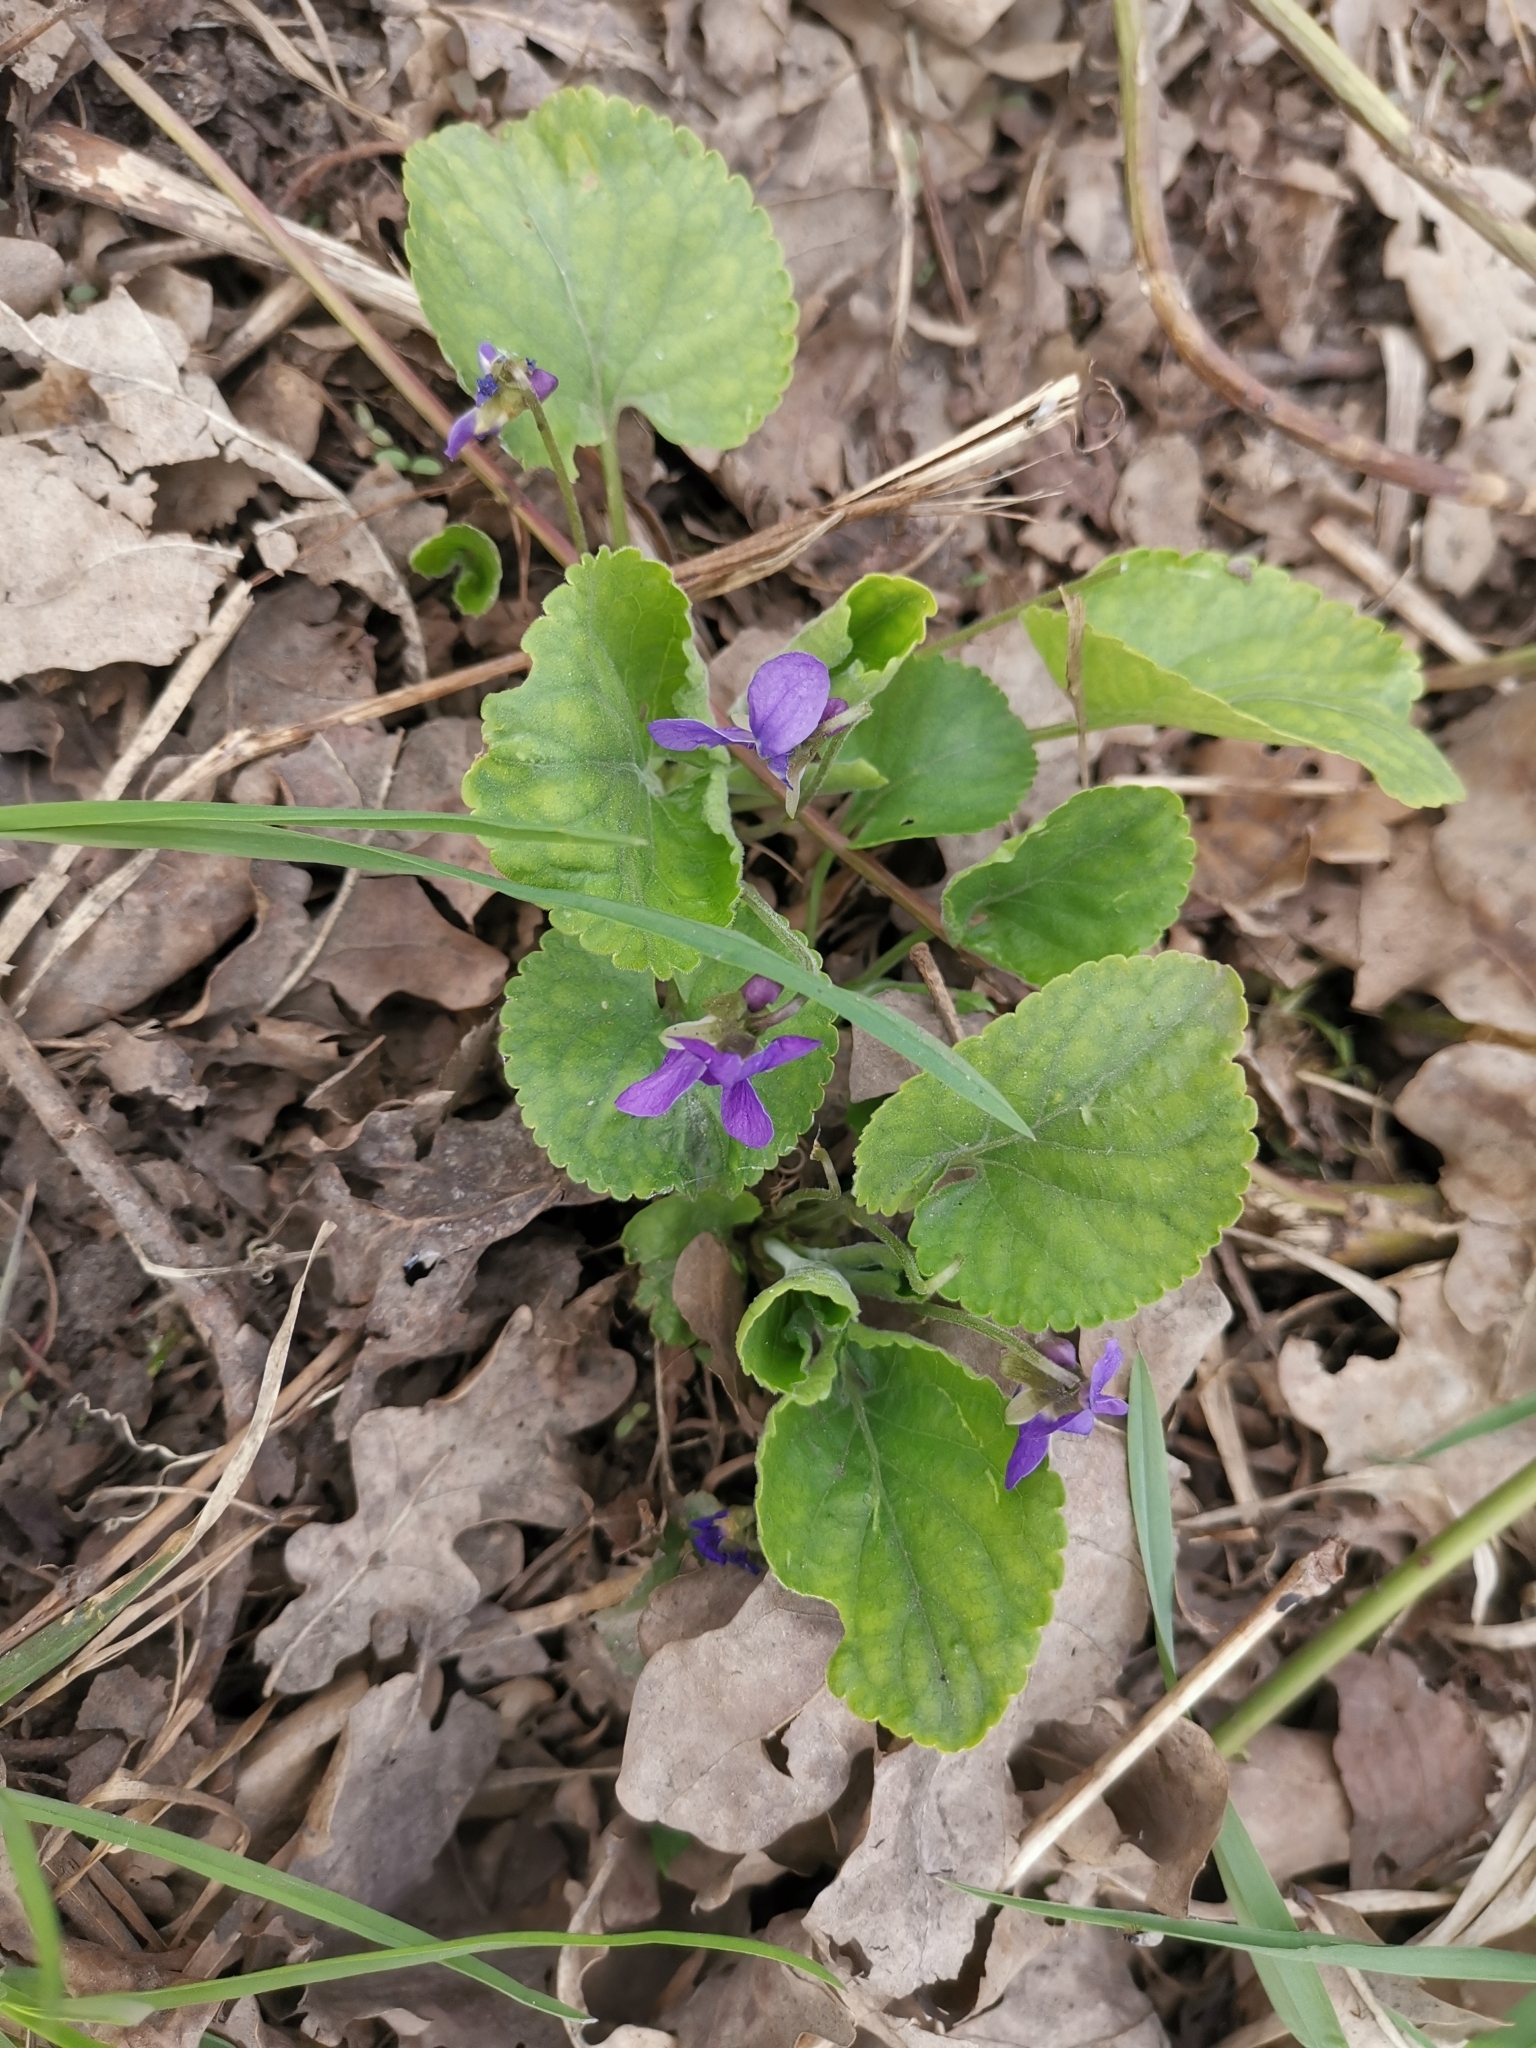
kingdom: Plantae
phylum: Tracheophyta
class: Magnoliopsida
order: Malpighiales
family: Violaceae
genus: Viola
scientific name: Viola odorata
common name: Sweet violet
